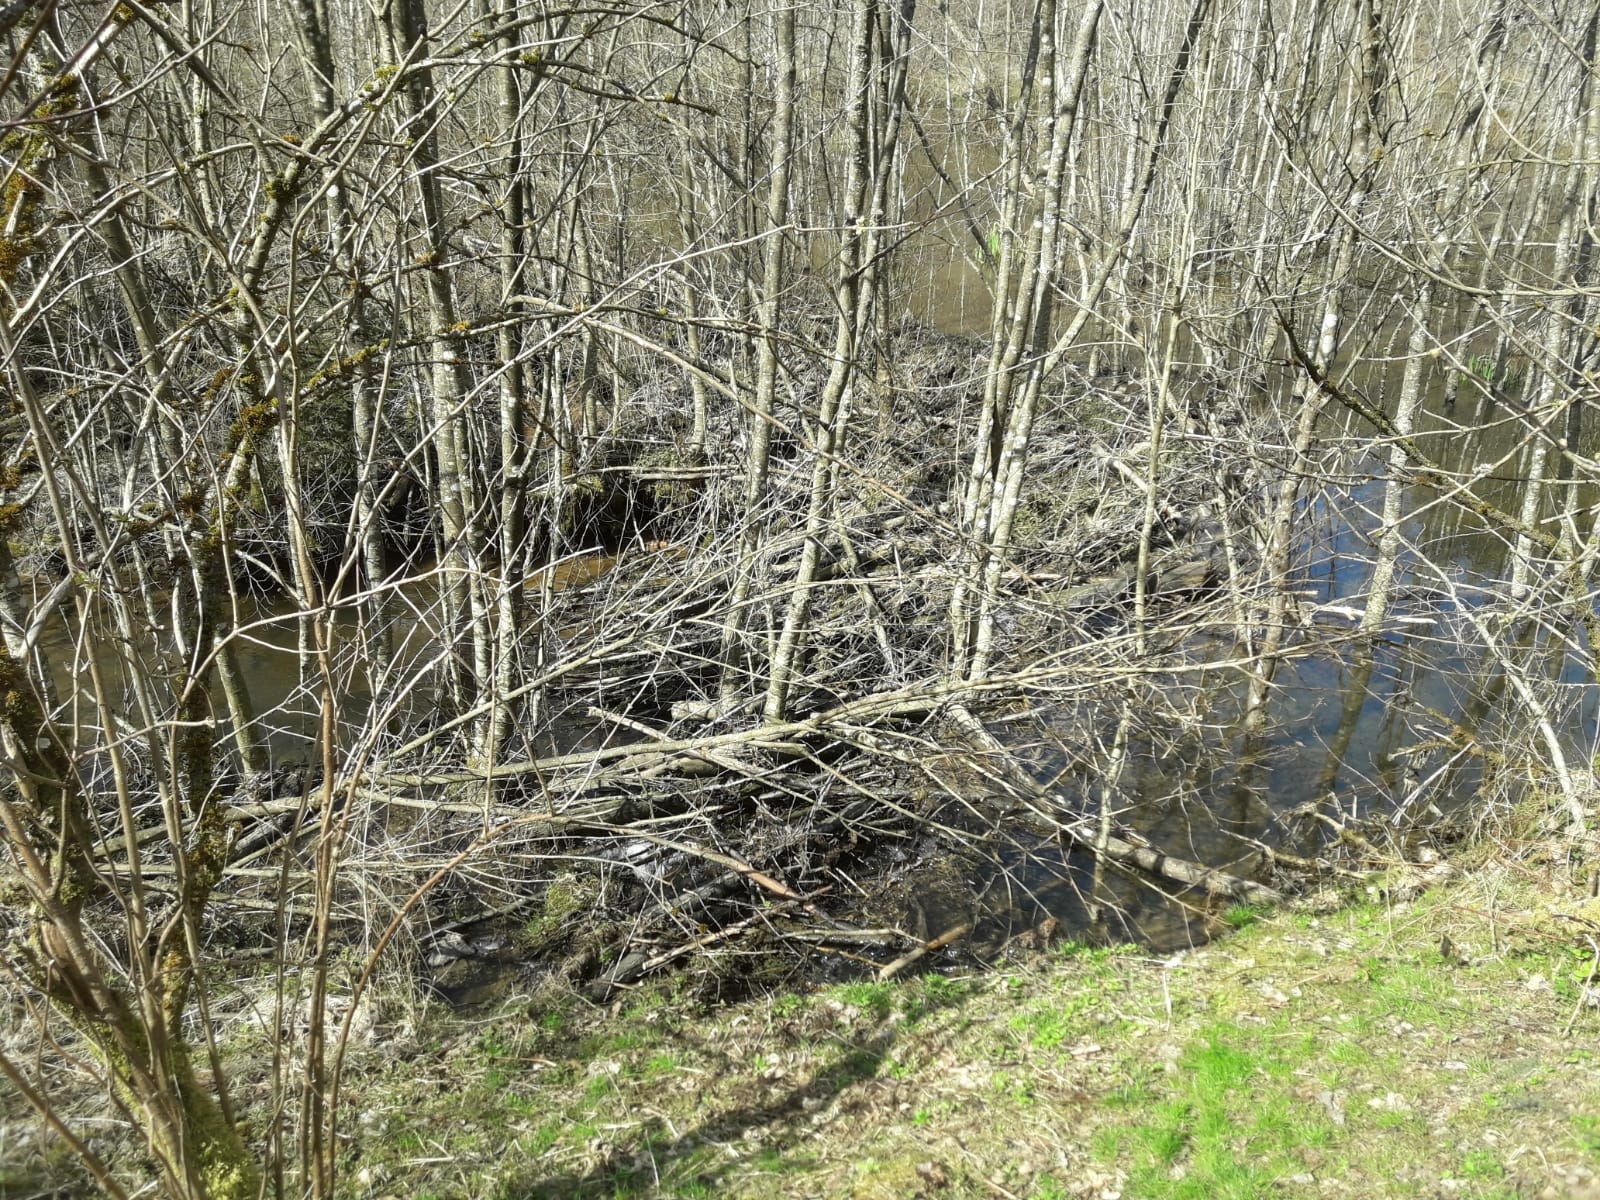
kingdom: Animalia
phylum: Chordata
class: Mammalia
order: Rodentia
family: Castoridae
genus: Castor
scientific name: Castor fiber
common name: Eurasian beaver
